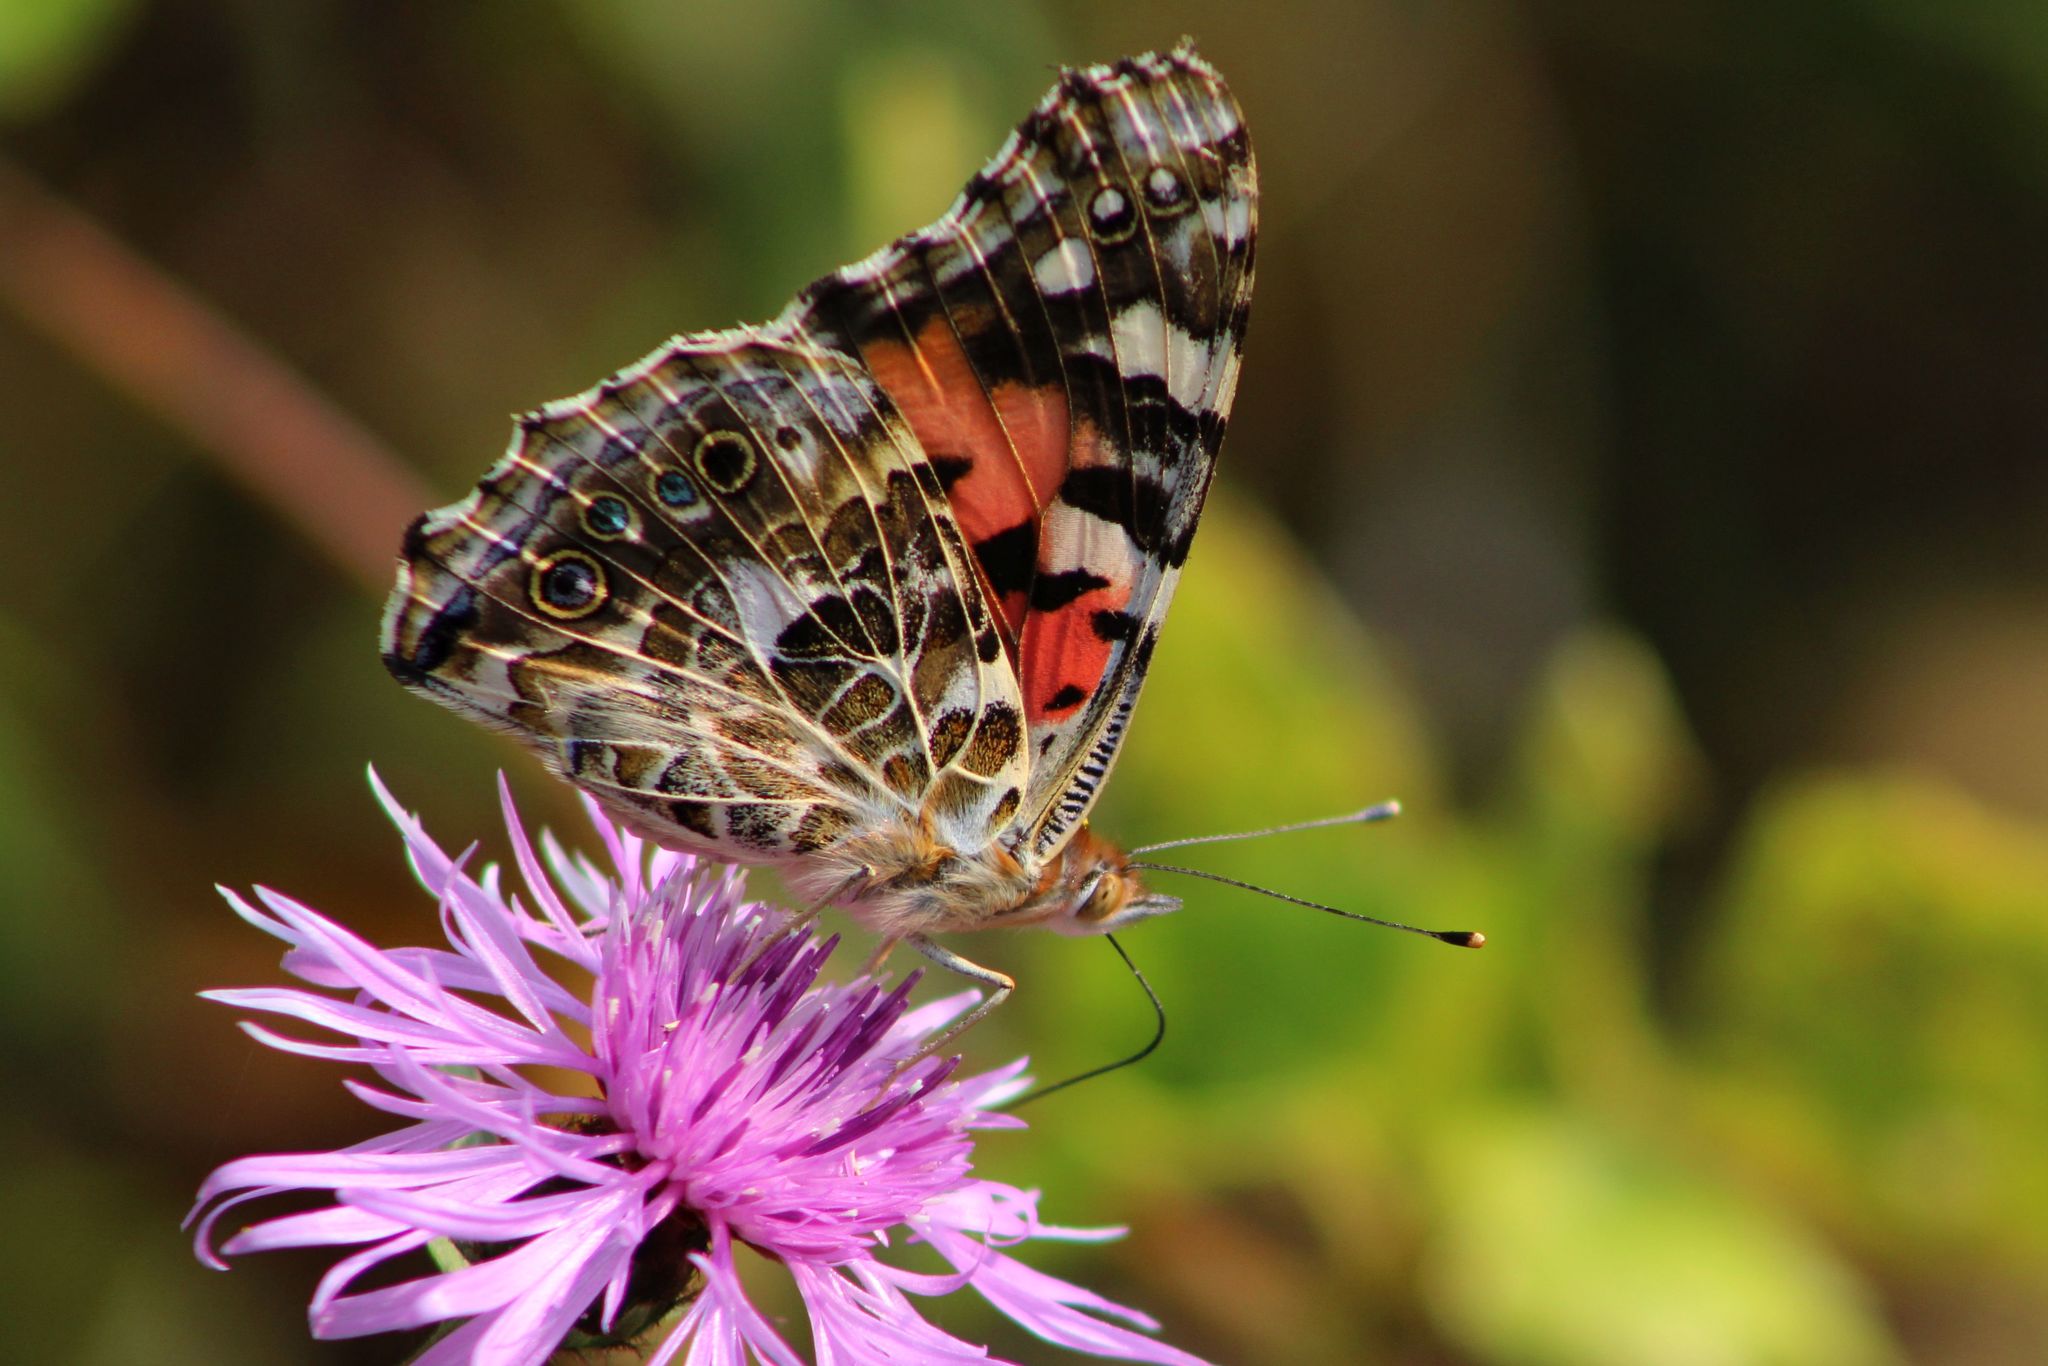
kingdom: Animalia
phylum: Arthropoda
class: Insecta
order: Lepidoptera
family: Nymphalidae
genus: Vanessa
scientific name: Vanessa cardui
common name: Painted lady
